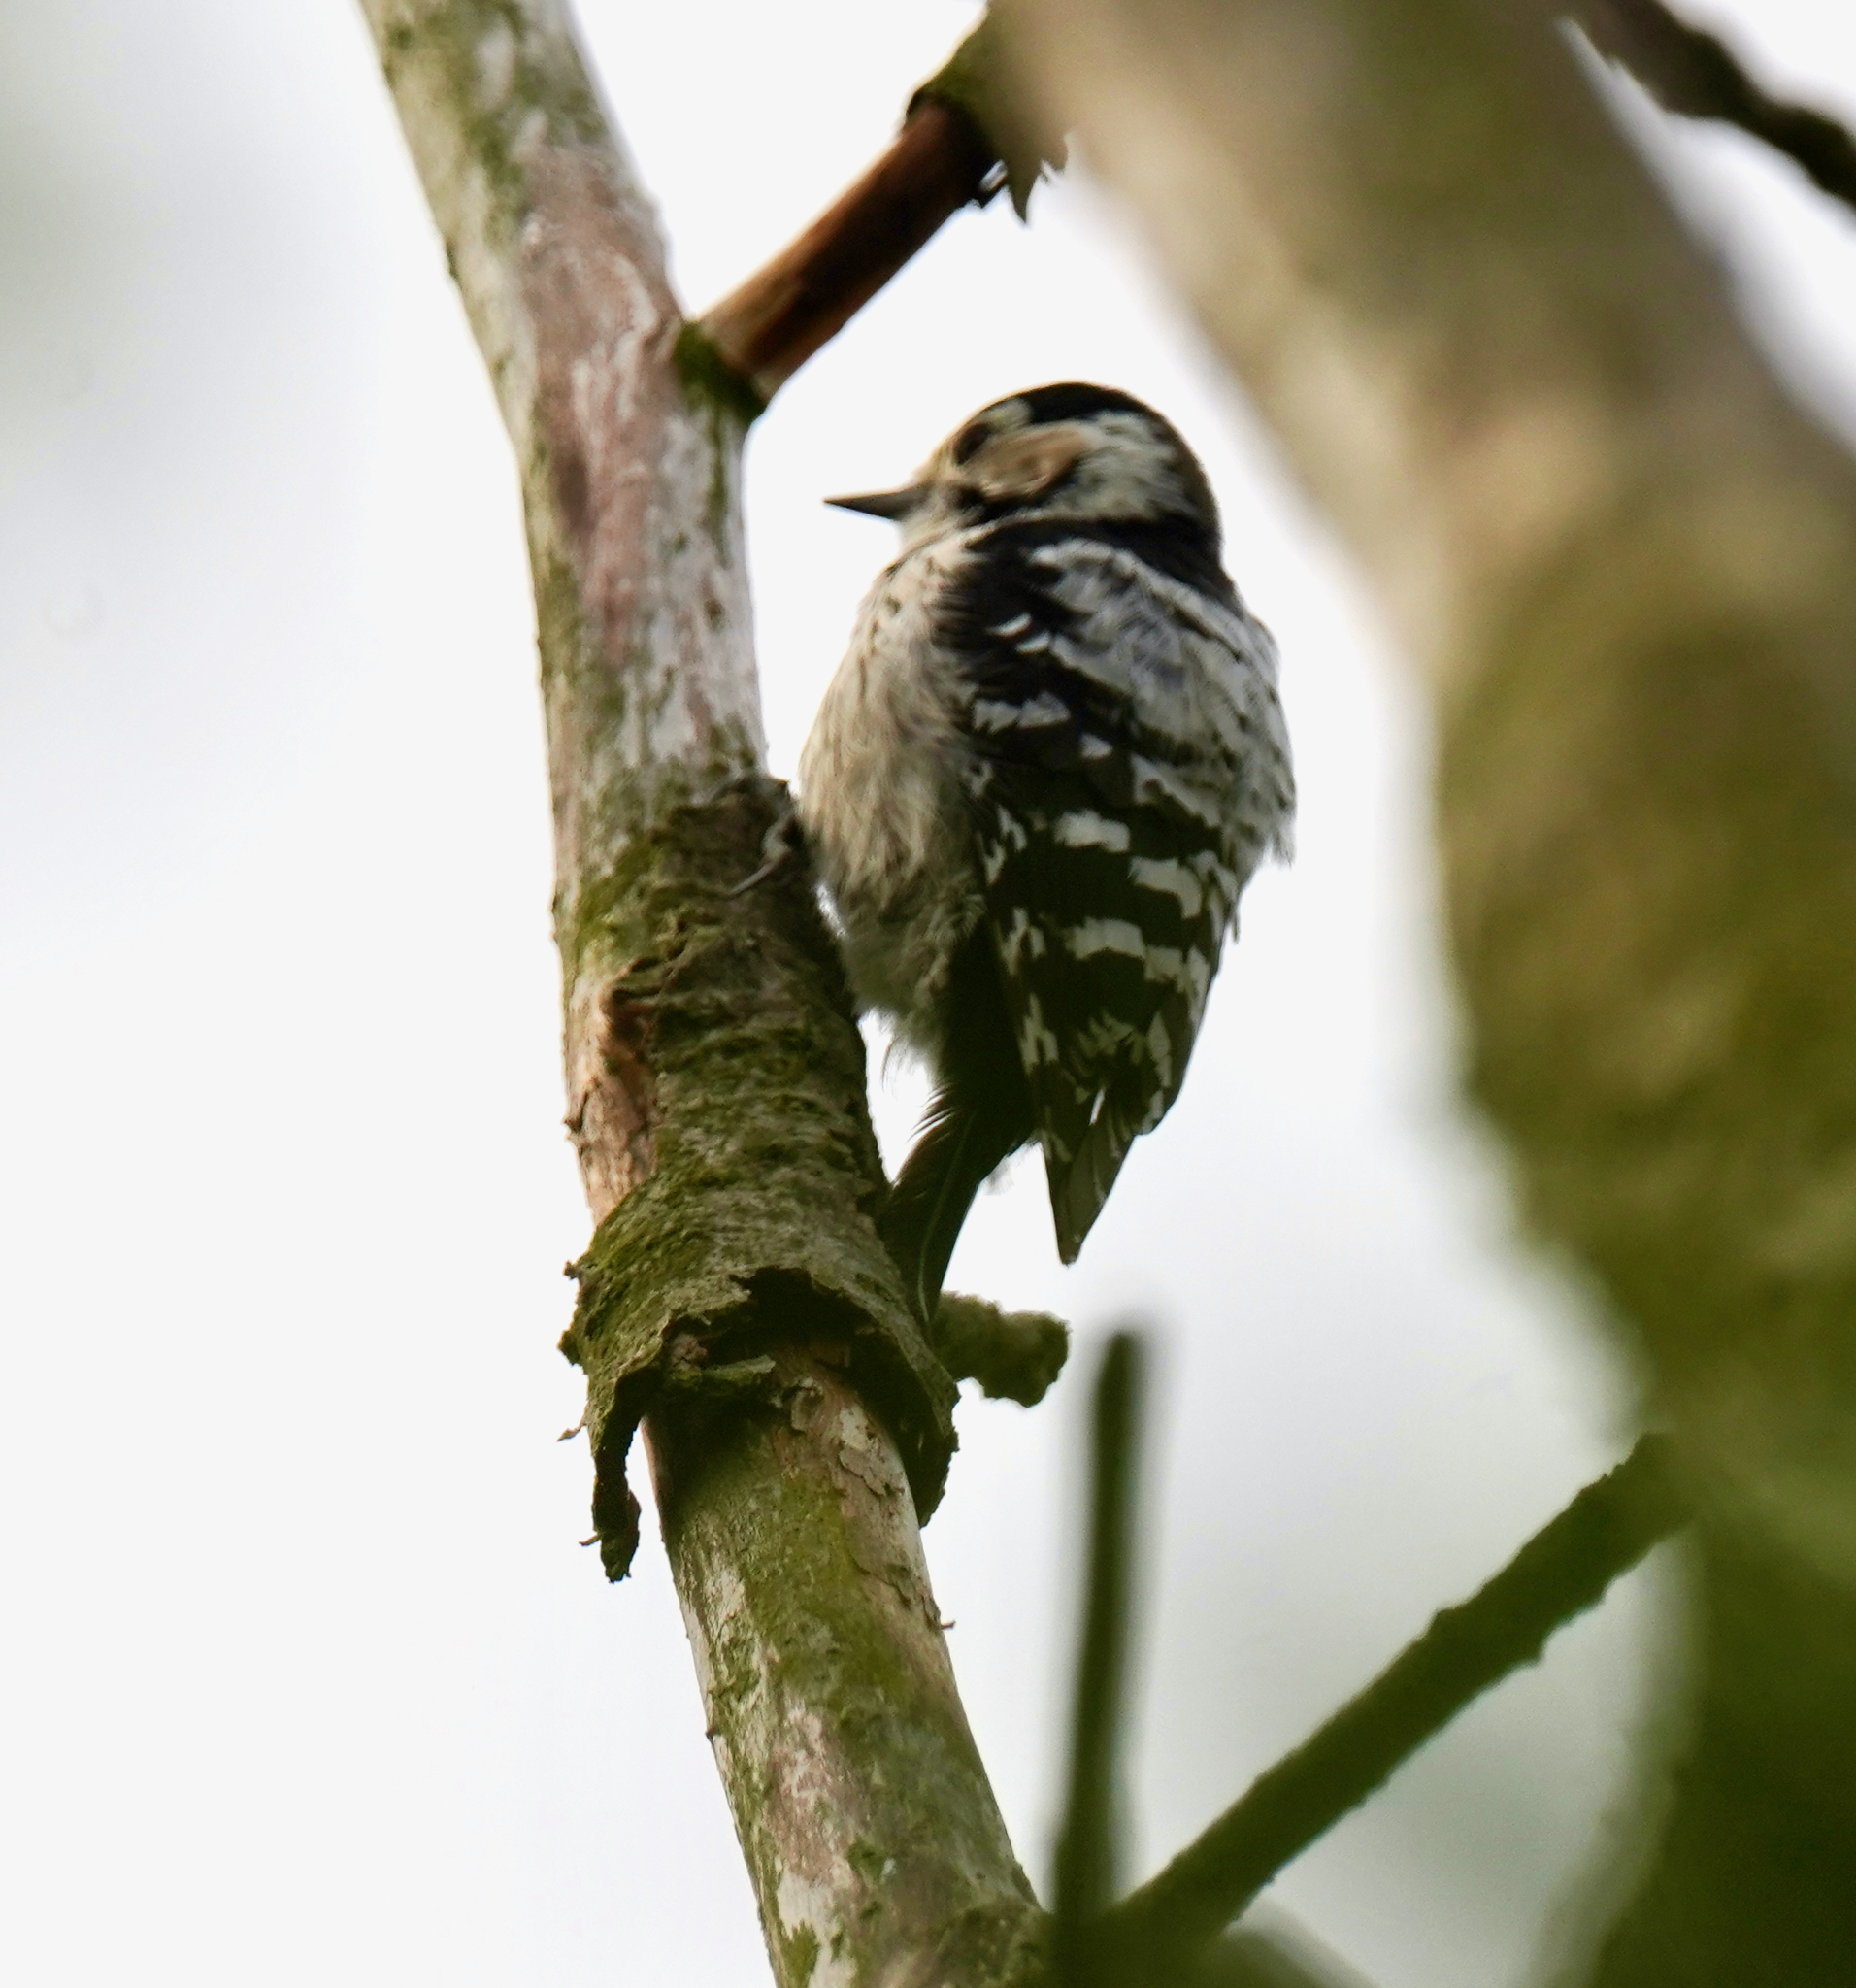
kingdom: Animalia
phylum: Chordata
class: Aves
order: Piciformes
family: Picidae
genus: Dryobates
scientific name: Dryobates minor
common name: Lesser spotted woodpecker
